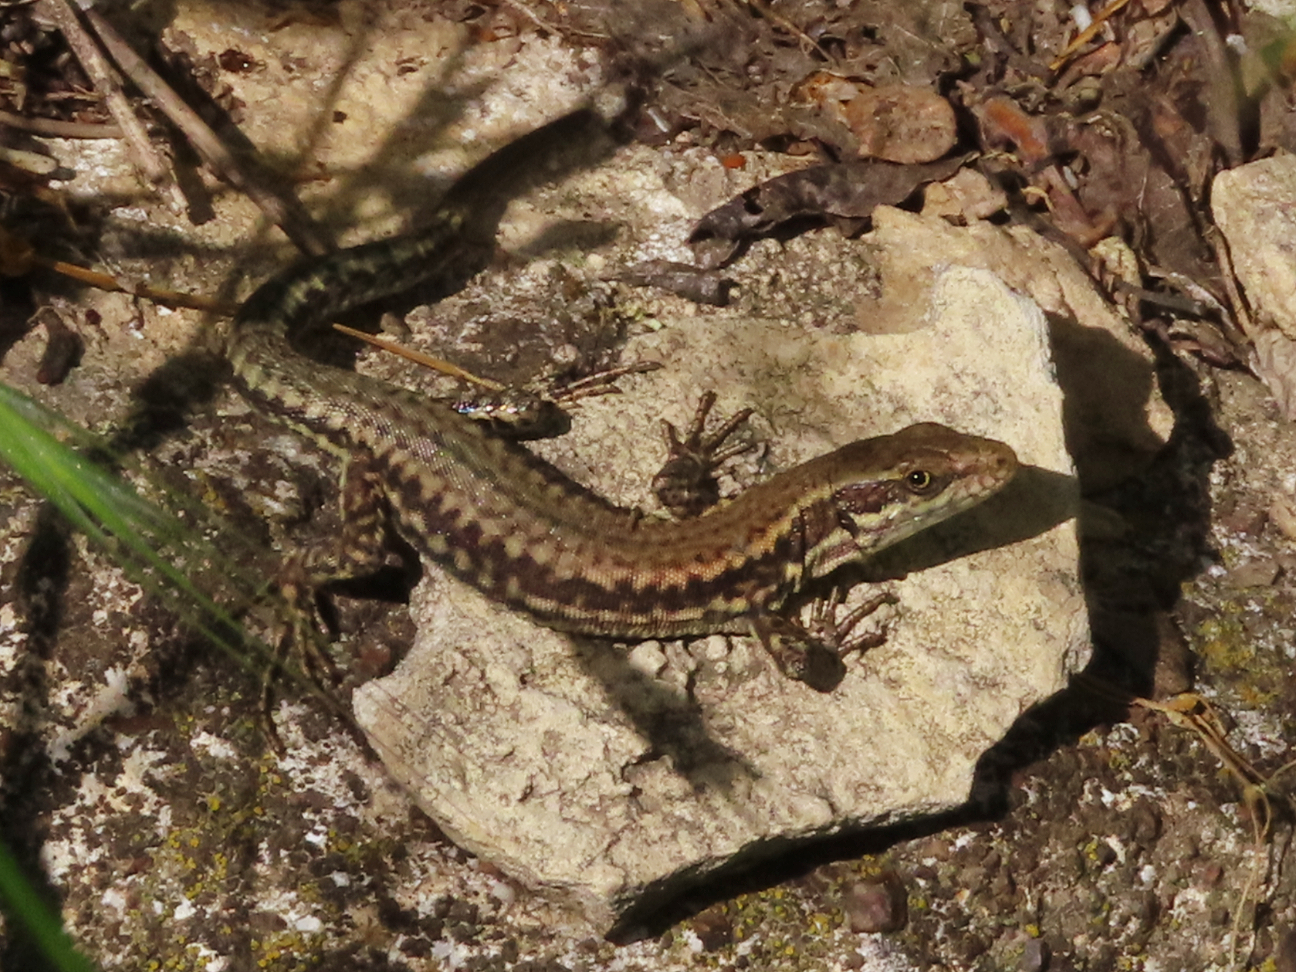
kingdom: Animalia
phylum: Chordata
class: Squamata
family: Lacertidae
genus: Podarcis
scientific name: Podarcis muralis
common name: Common wall lizard
